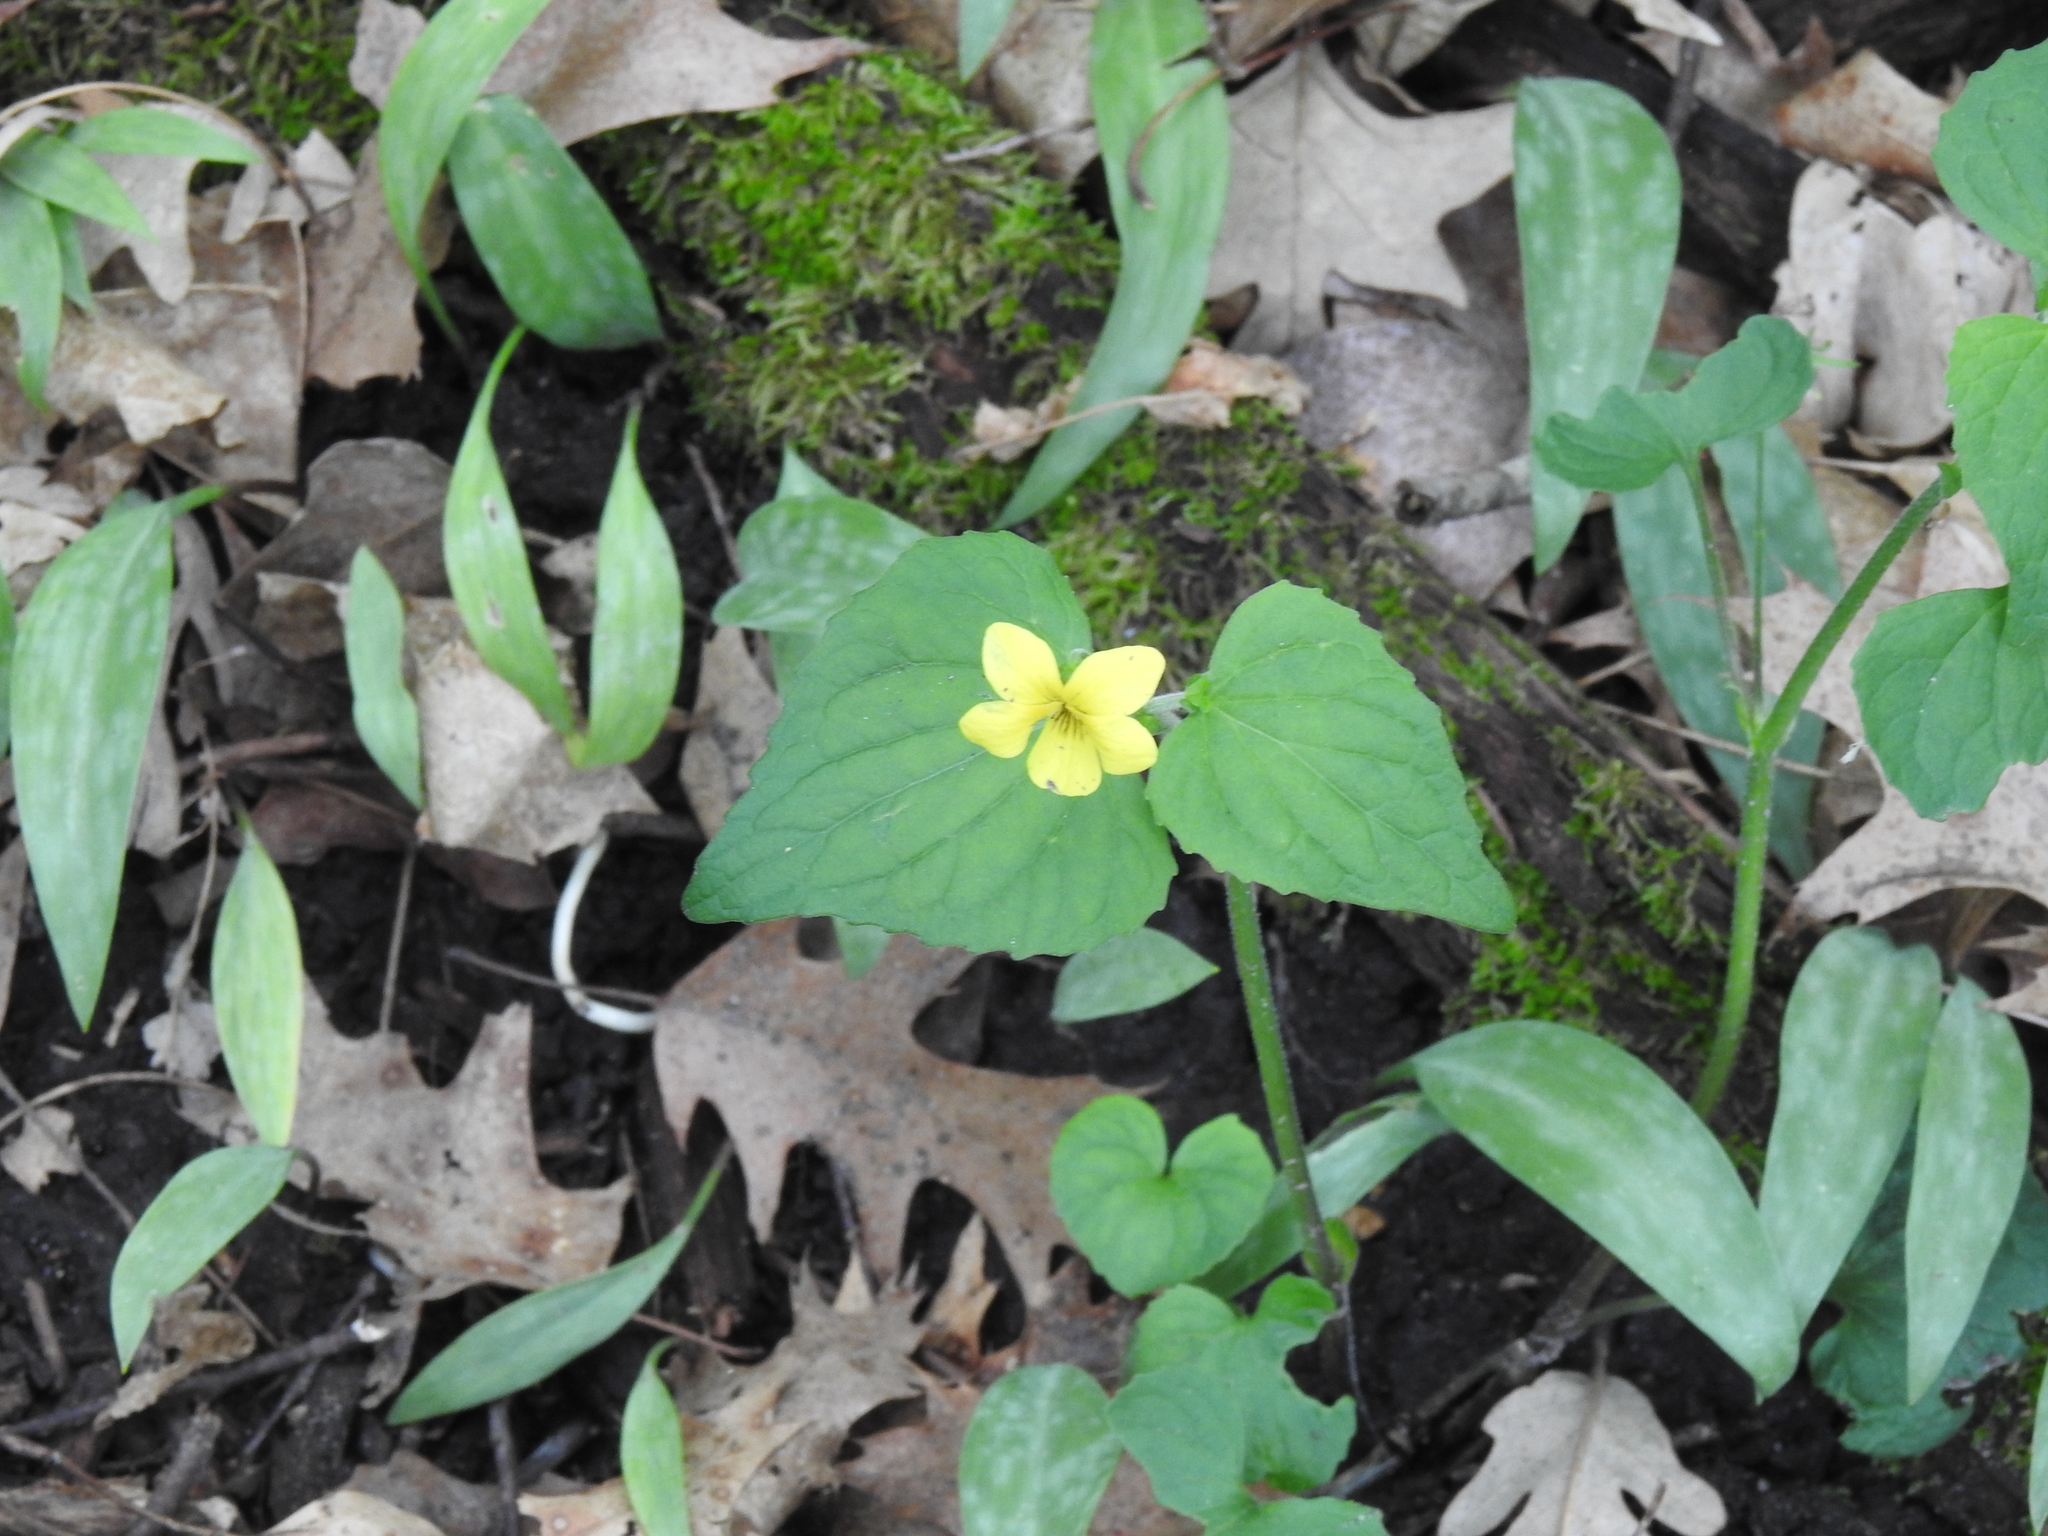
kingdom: Plantae
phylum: Tracheophyta
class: Magnoliopsida
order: Malpighiales
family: Violaceae
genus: Viola
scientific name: Viola eriocarpa
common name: Smooth yellow violet
